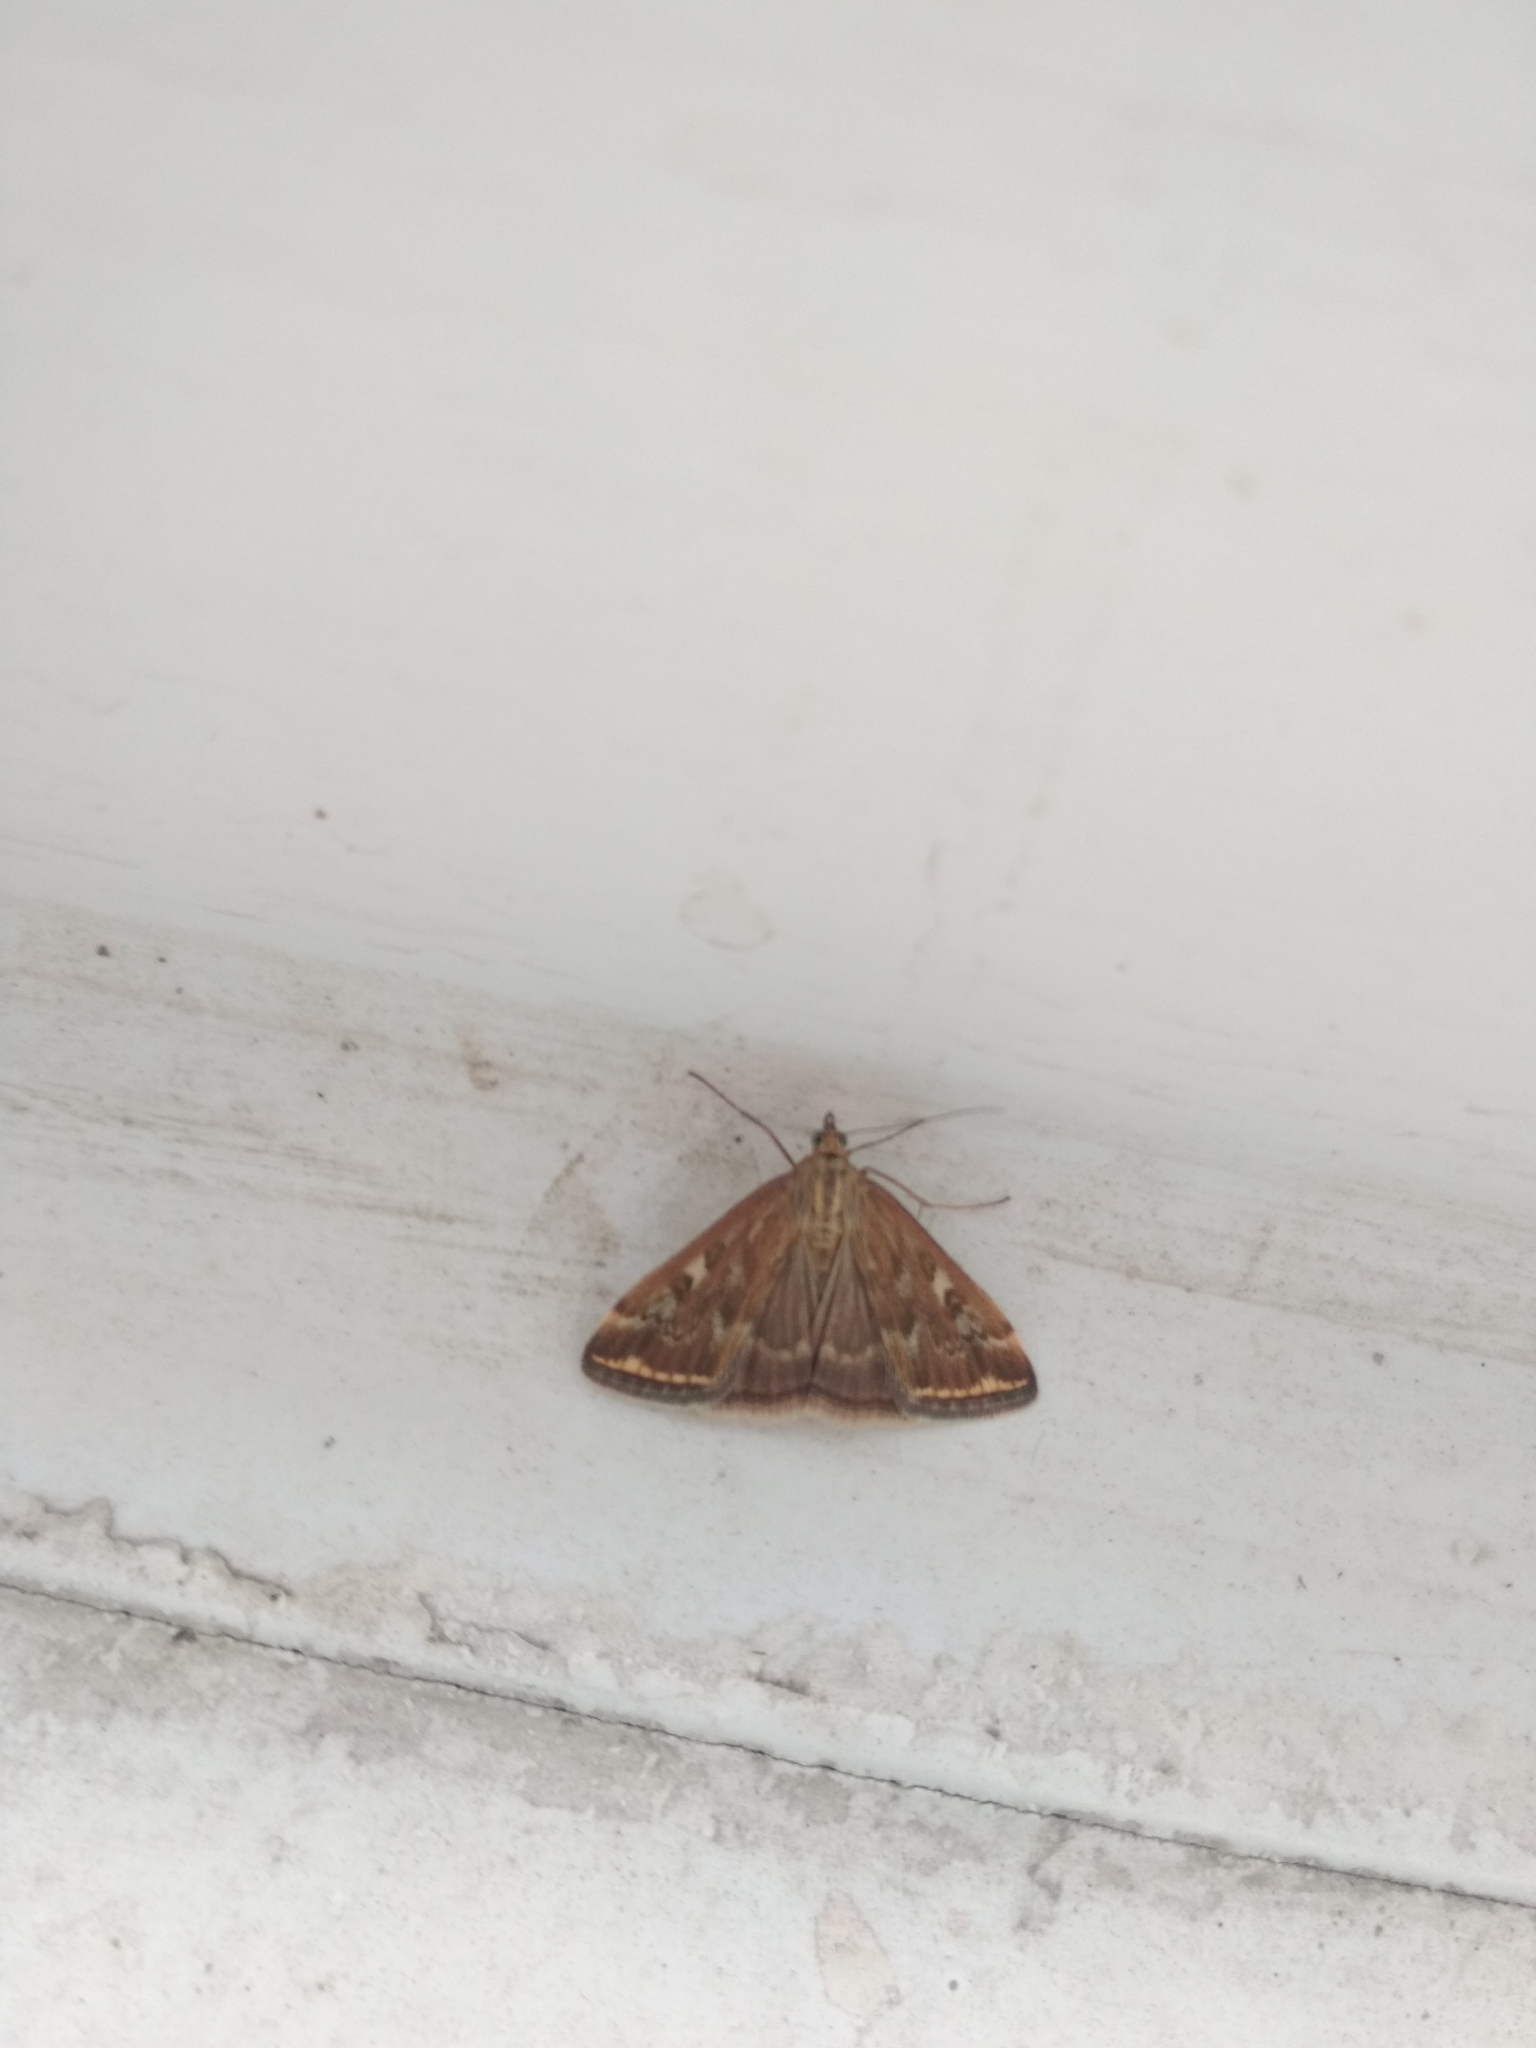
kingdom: Animalia
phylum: Arthropoda
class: Insecta
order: Lepidoptera
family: Crambidae
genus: Loxostege
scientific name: Loxostege sticticalis
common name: Crambid moth
